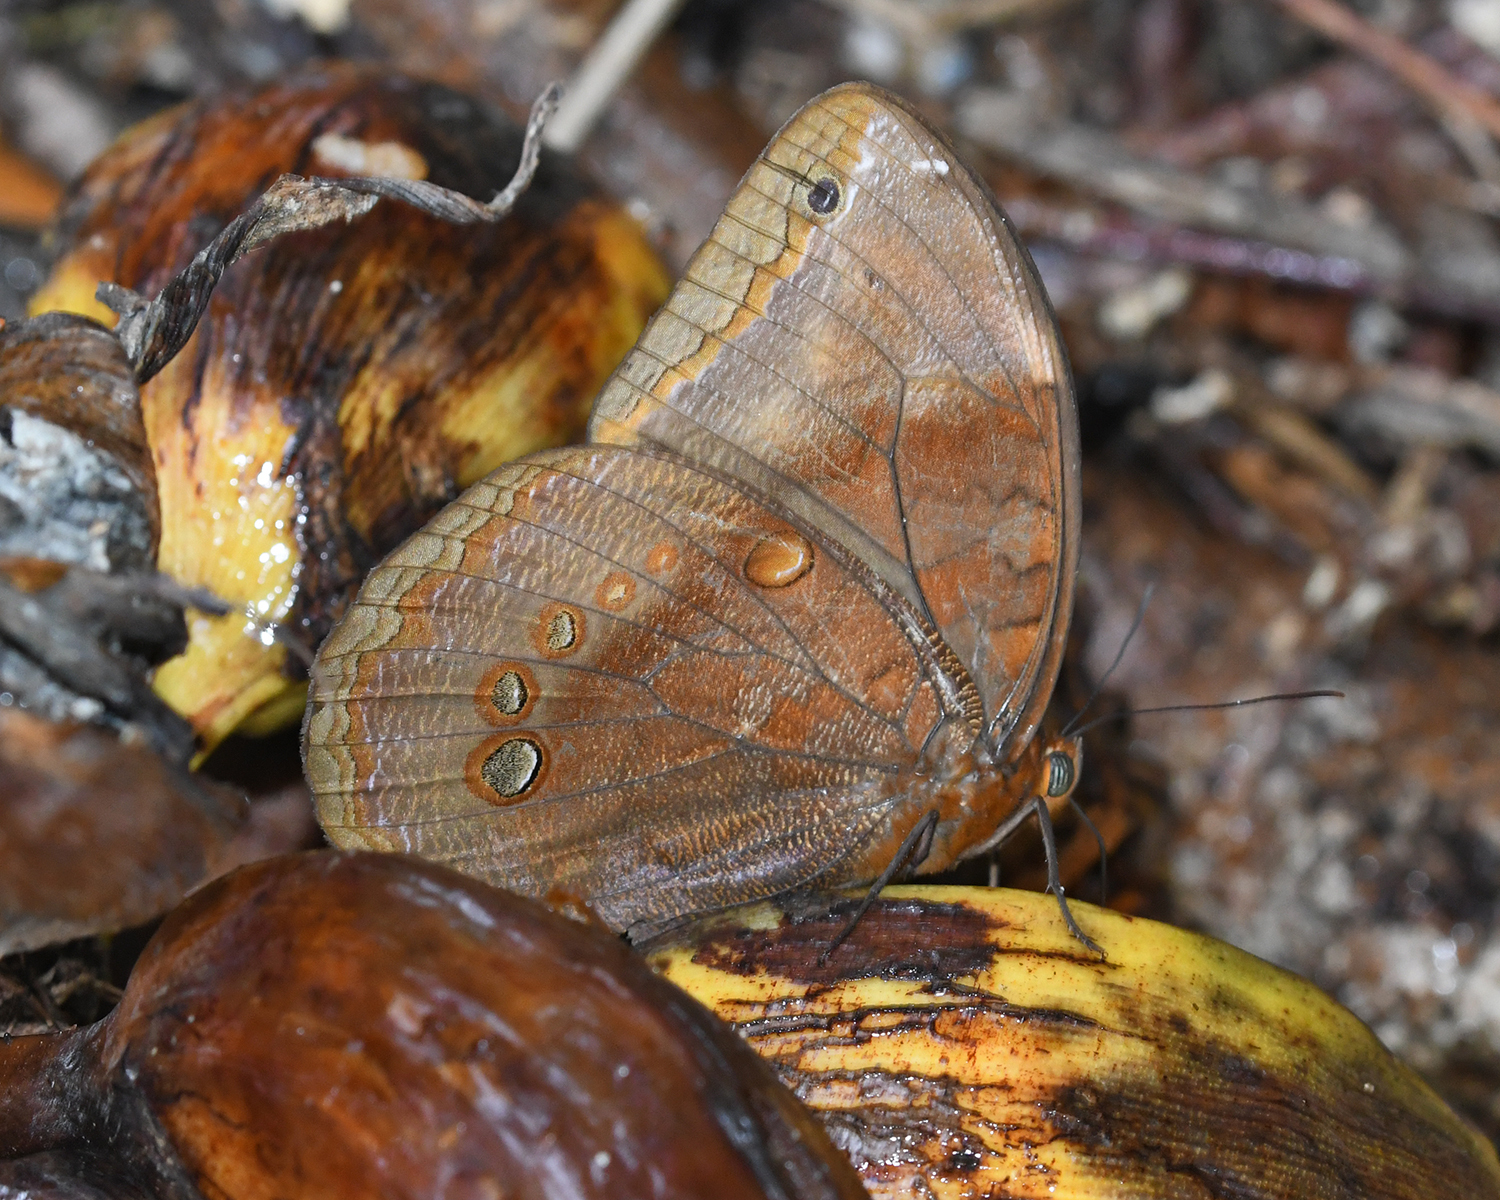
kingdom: Animalia
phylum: Arthropoda
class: Insecta
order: Lepidoptera
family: Nymphalidae
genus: Catoblepia
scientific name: Catoblepia berecynthia
